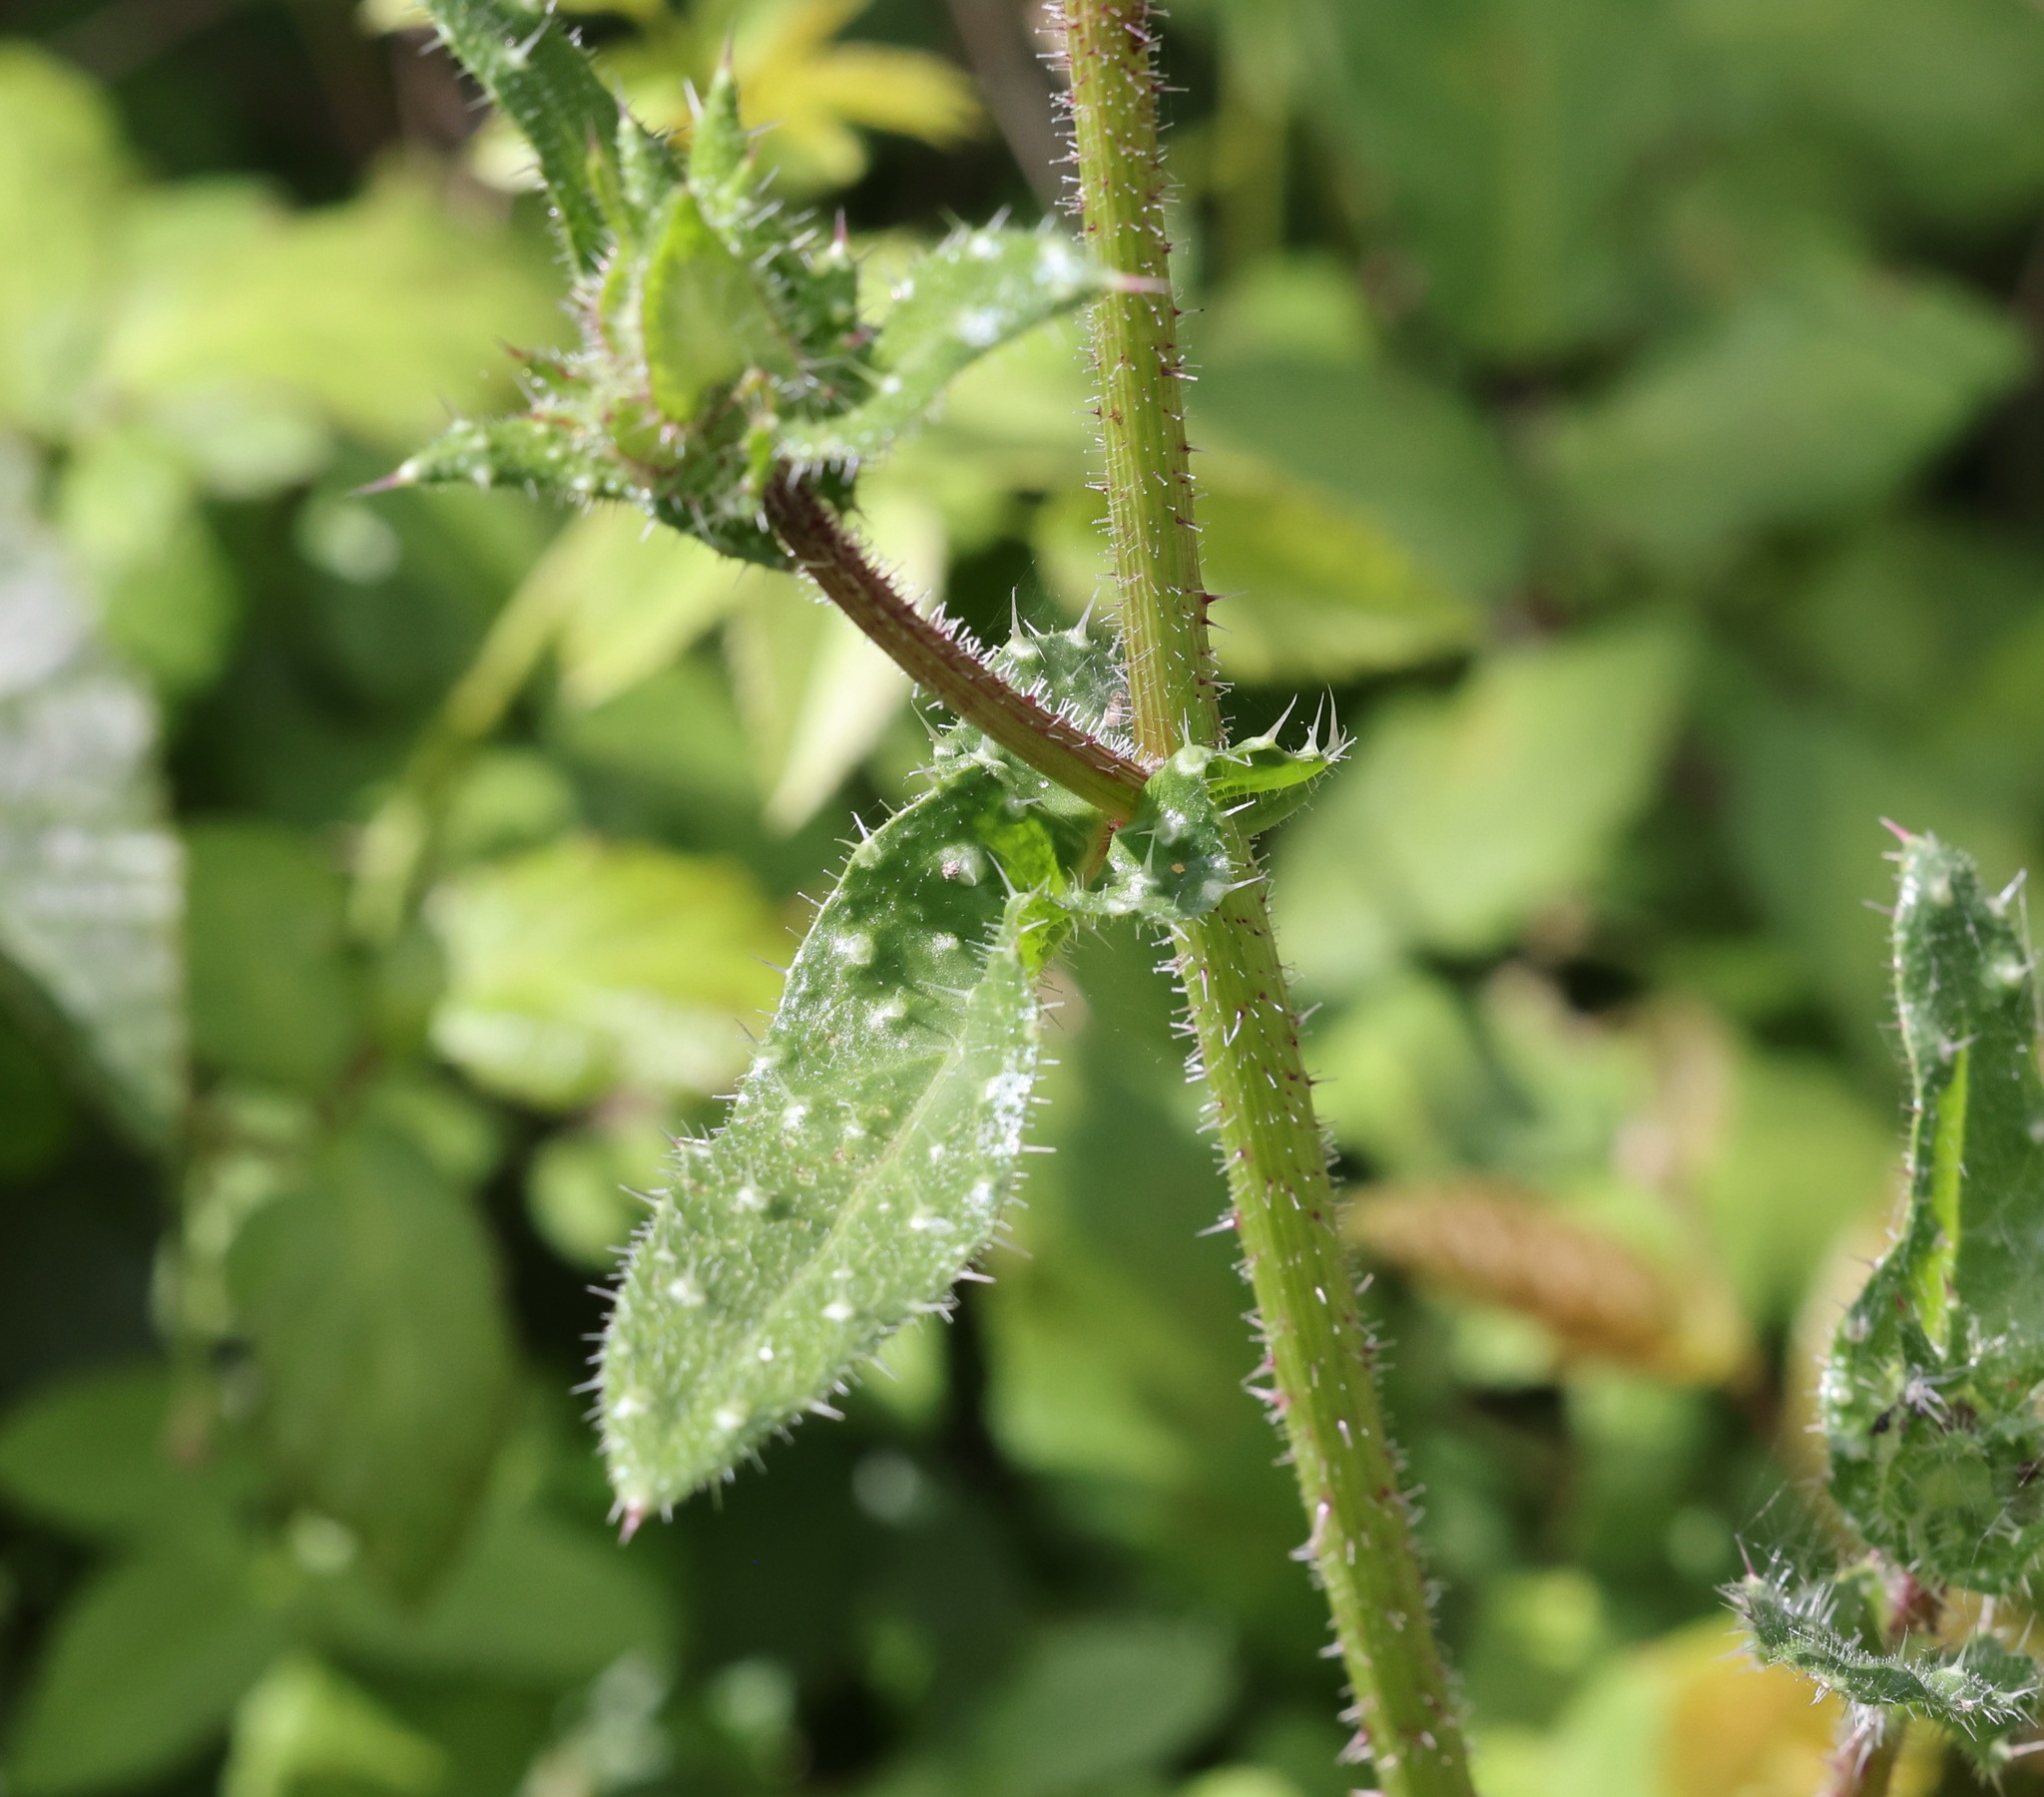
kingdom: Plantae
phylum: Tracheophyta
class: Magnoliopsida
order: Asterales
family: Asteraceae
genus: Helminthotheca
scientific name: Helminthotheca echioides
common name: Ox-tongue
